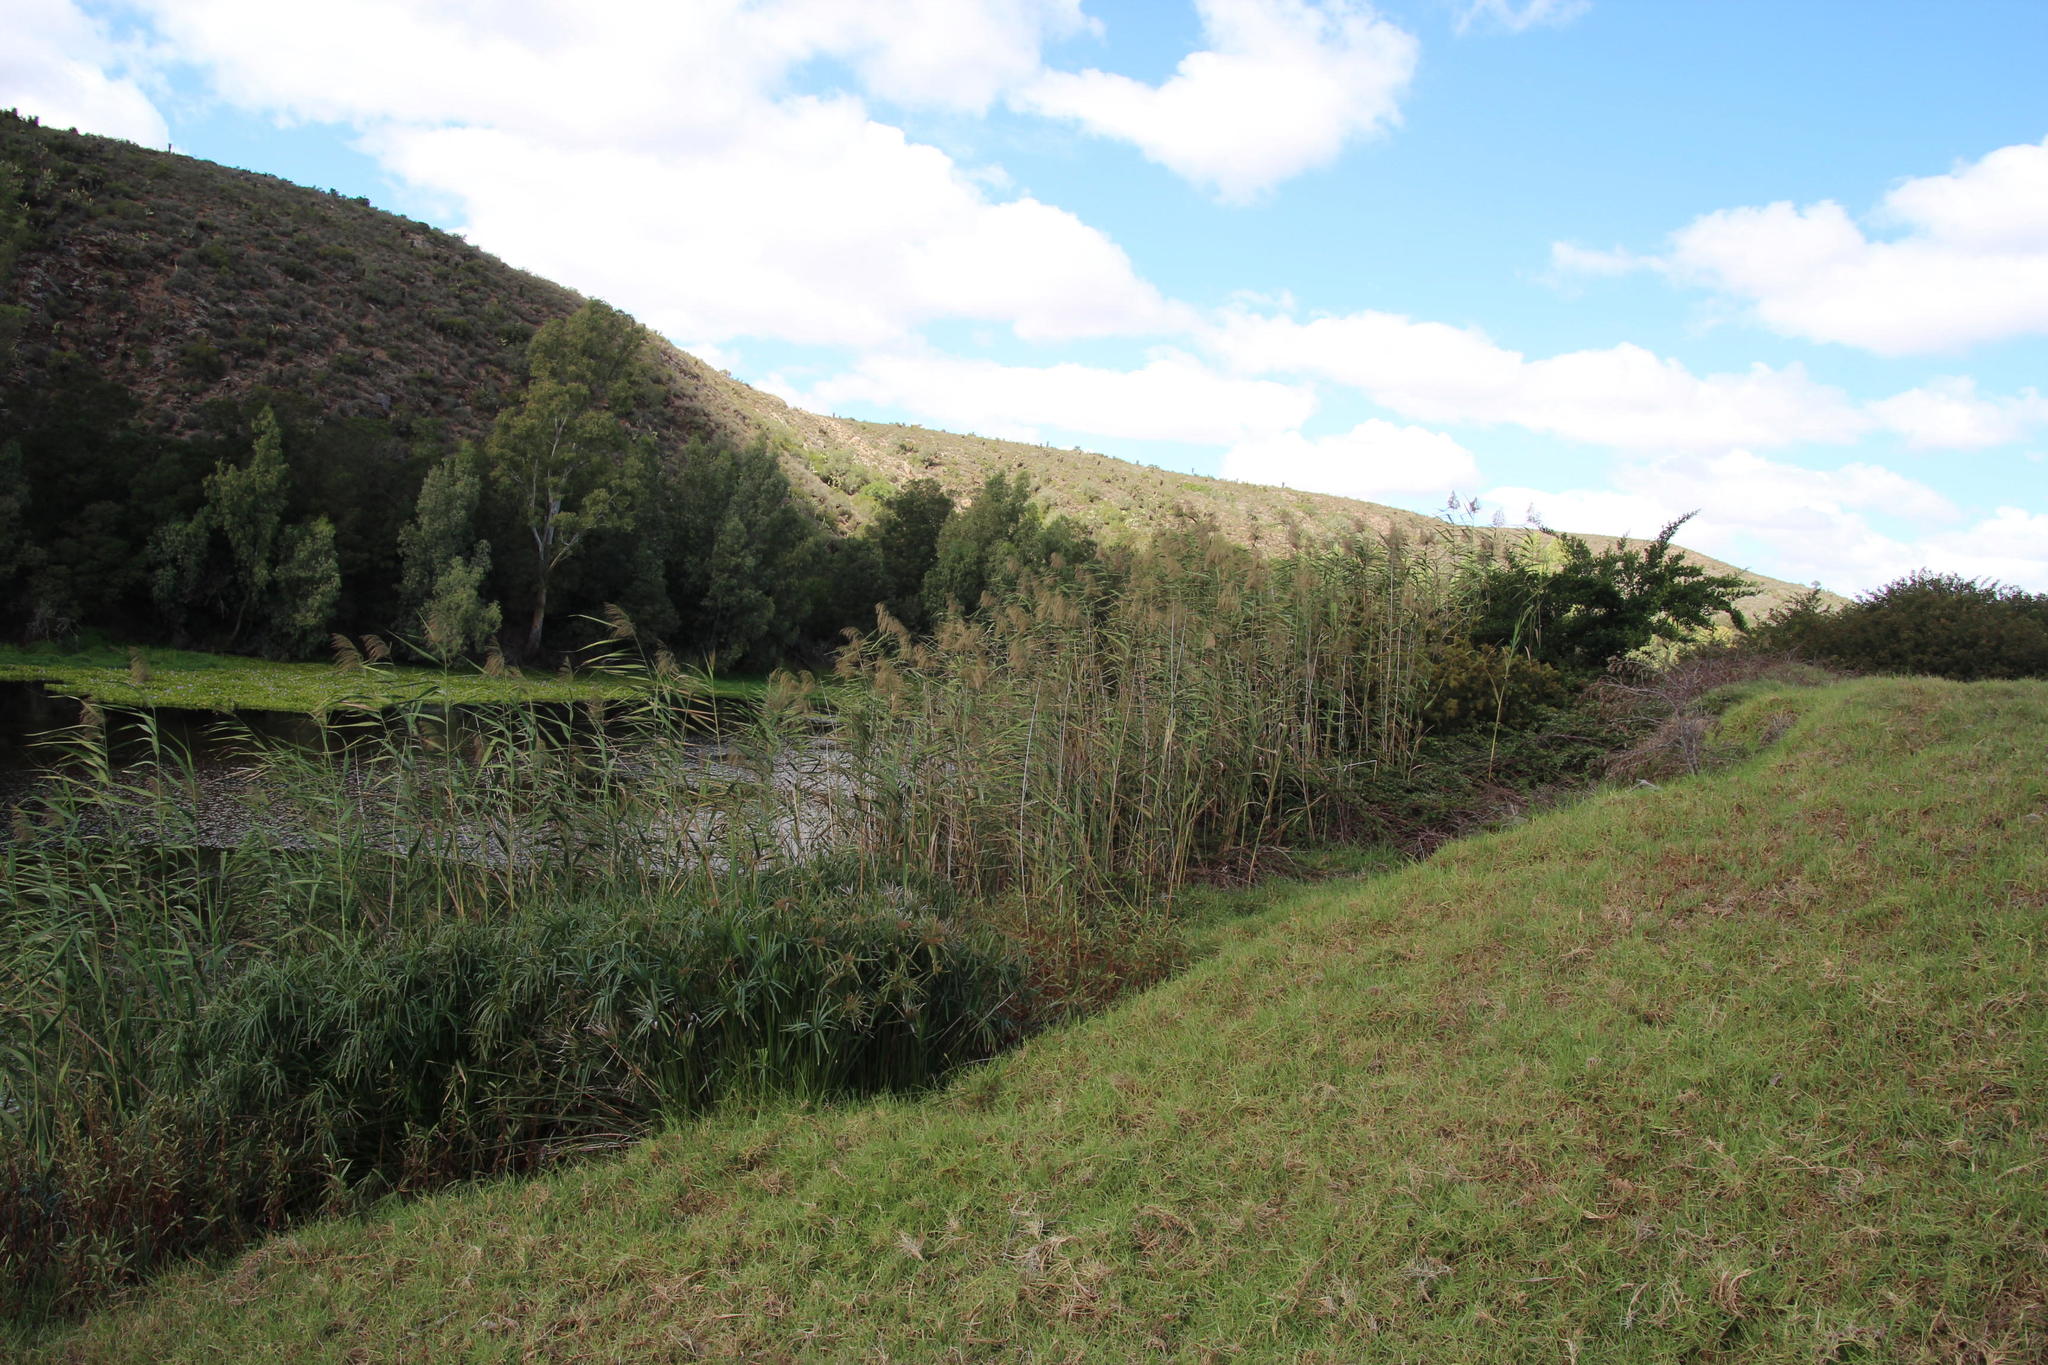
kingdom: Plantae
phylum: Tracheophyta
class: Liliopsida
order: Poales
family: Poaceae
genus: Phragmites
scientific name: Phragmites australis
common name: Common reed
